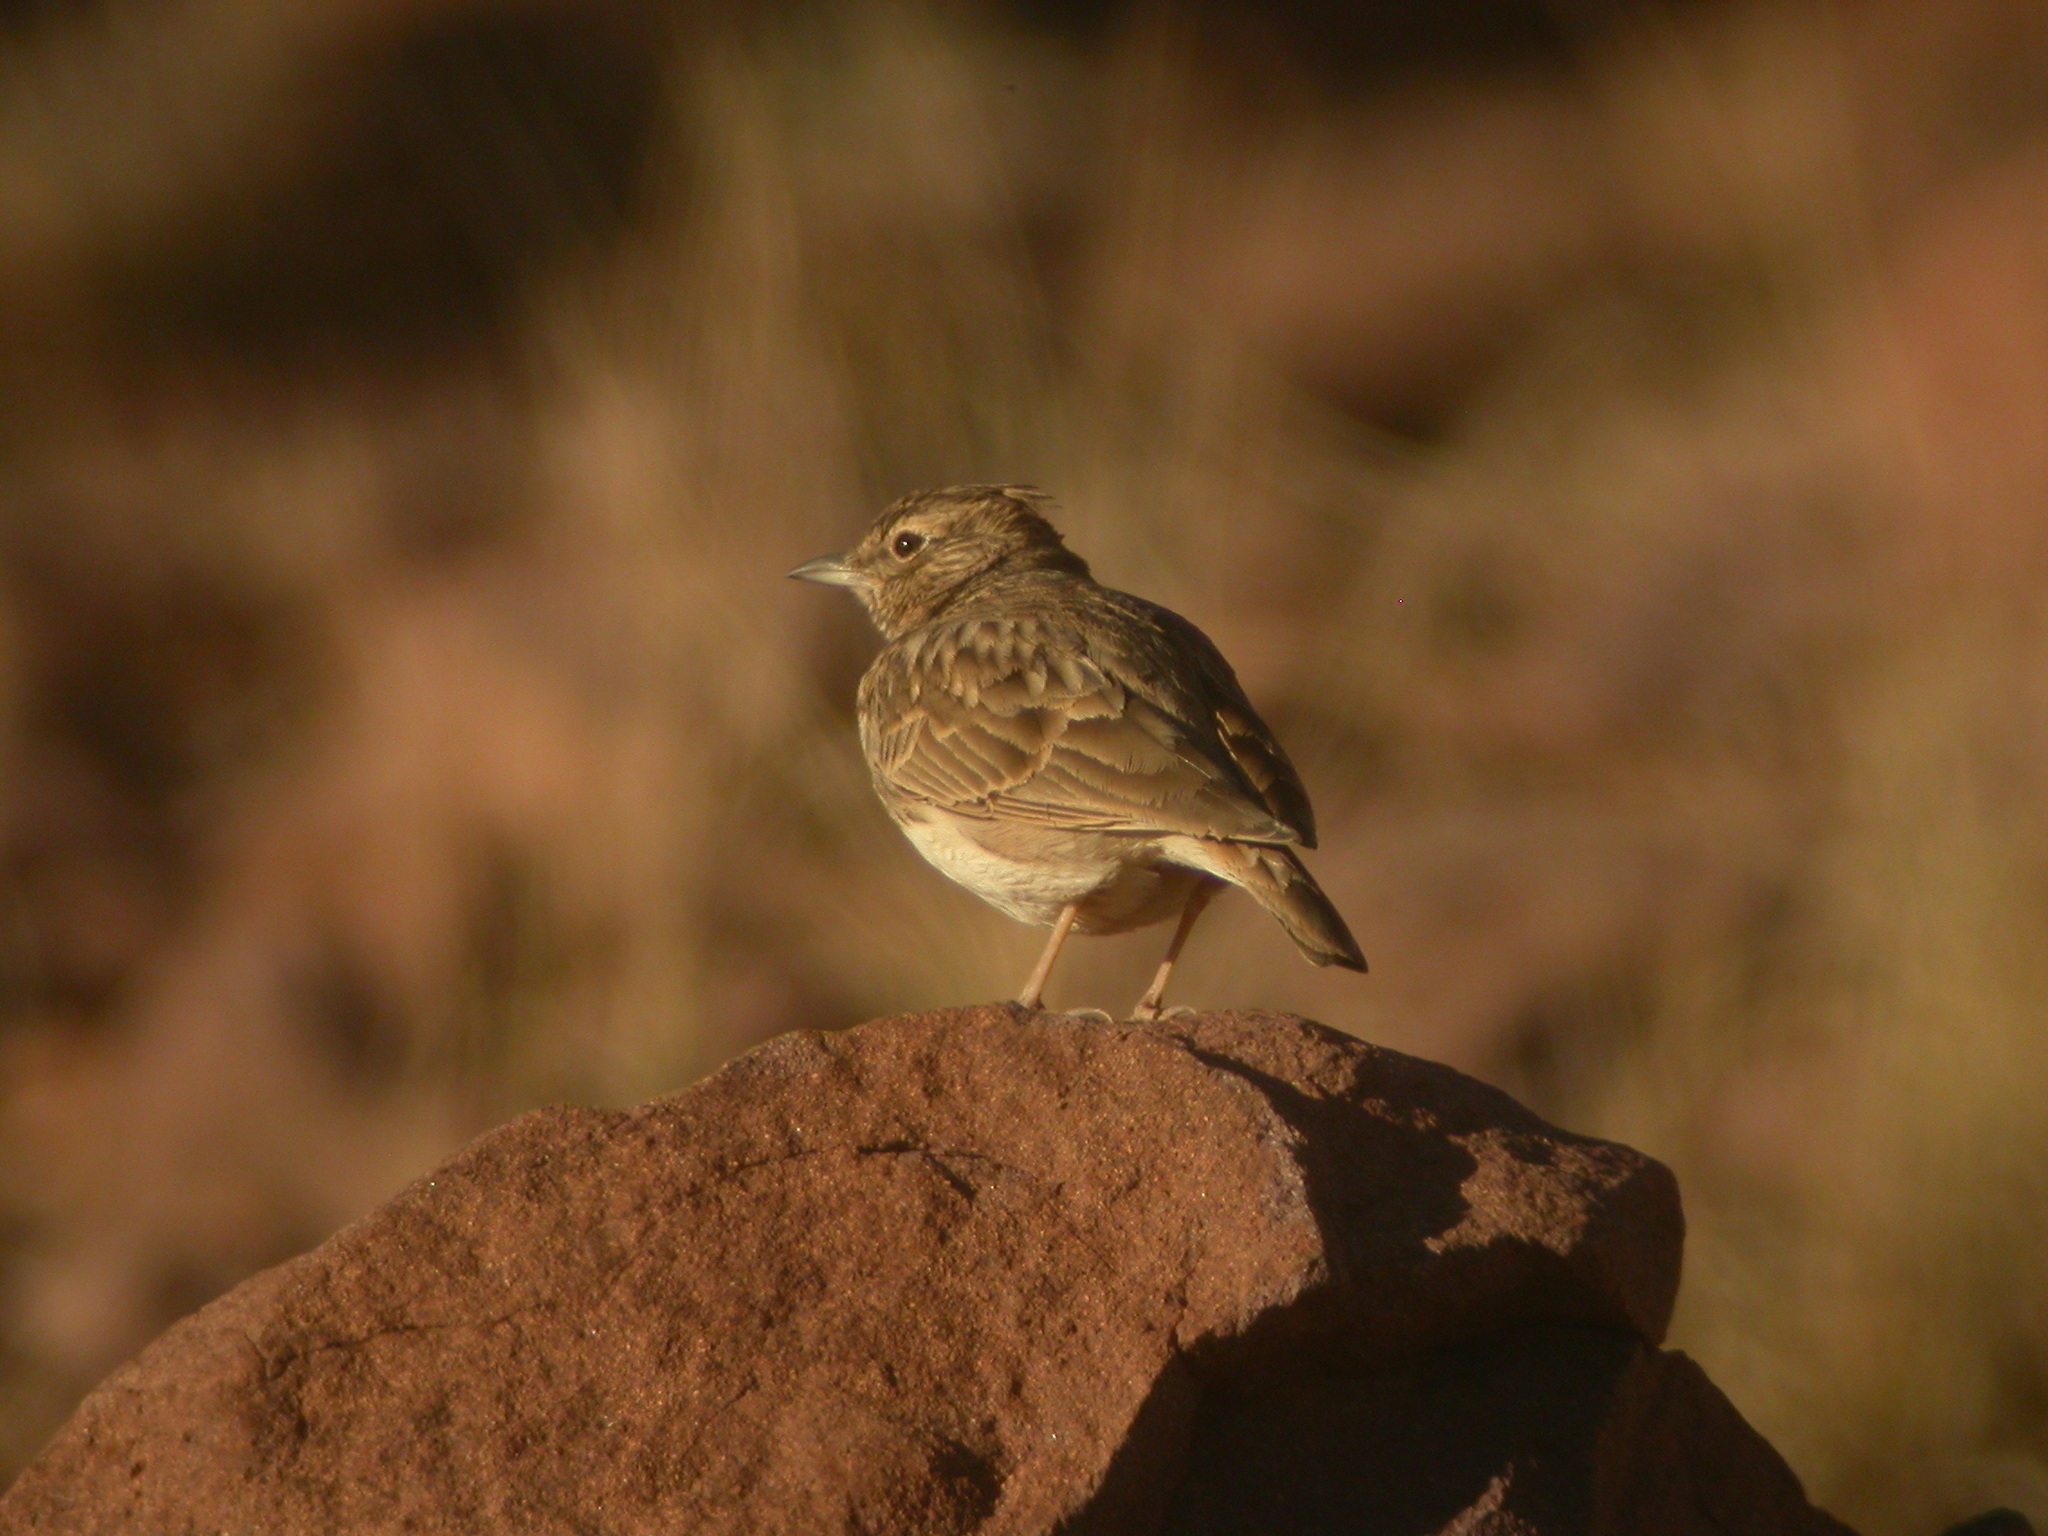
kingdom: Animalia
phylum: Chordata
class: Aves
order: Passeriformes
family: Alaudidae
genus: Galerida
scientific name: Galerida theklae
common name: Thekla lark
